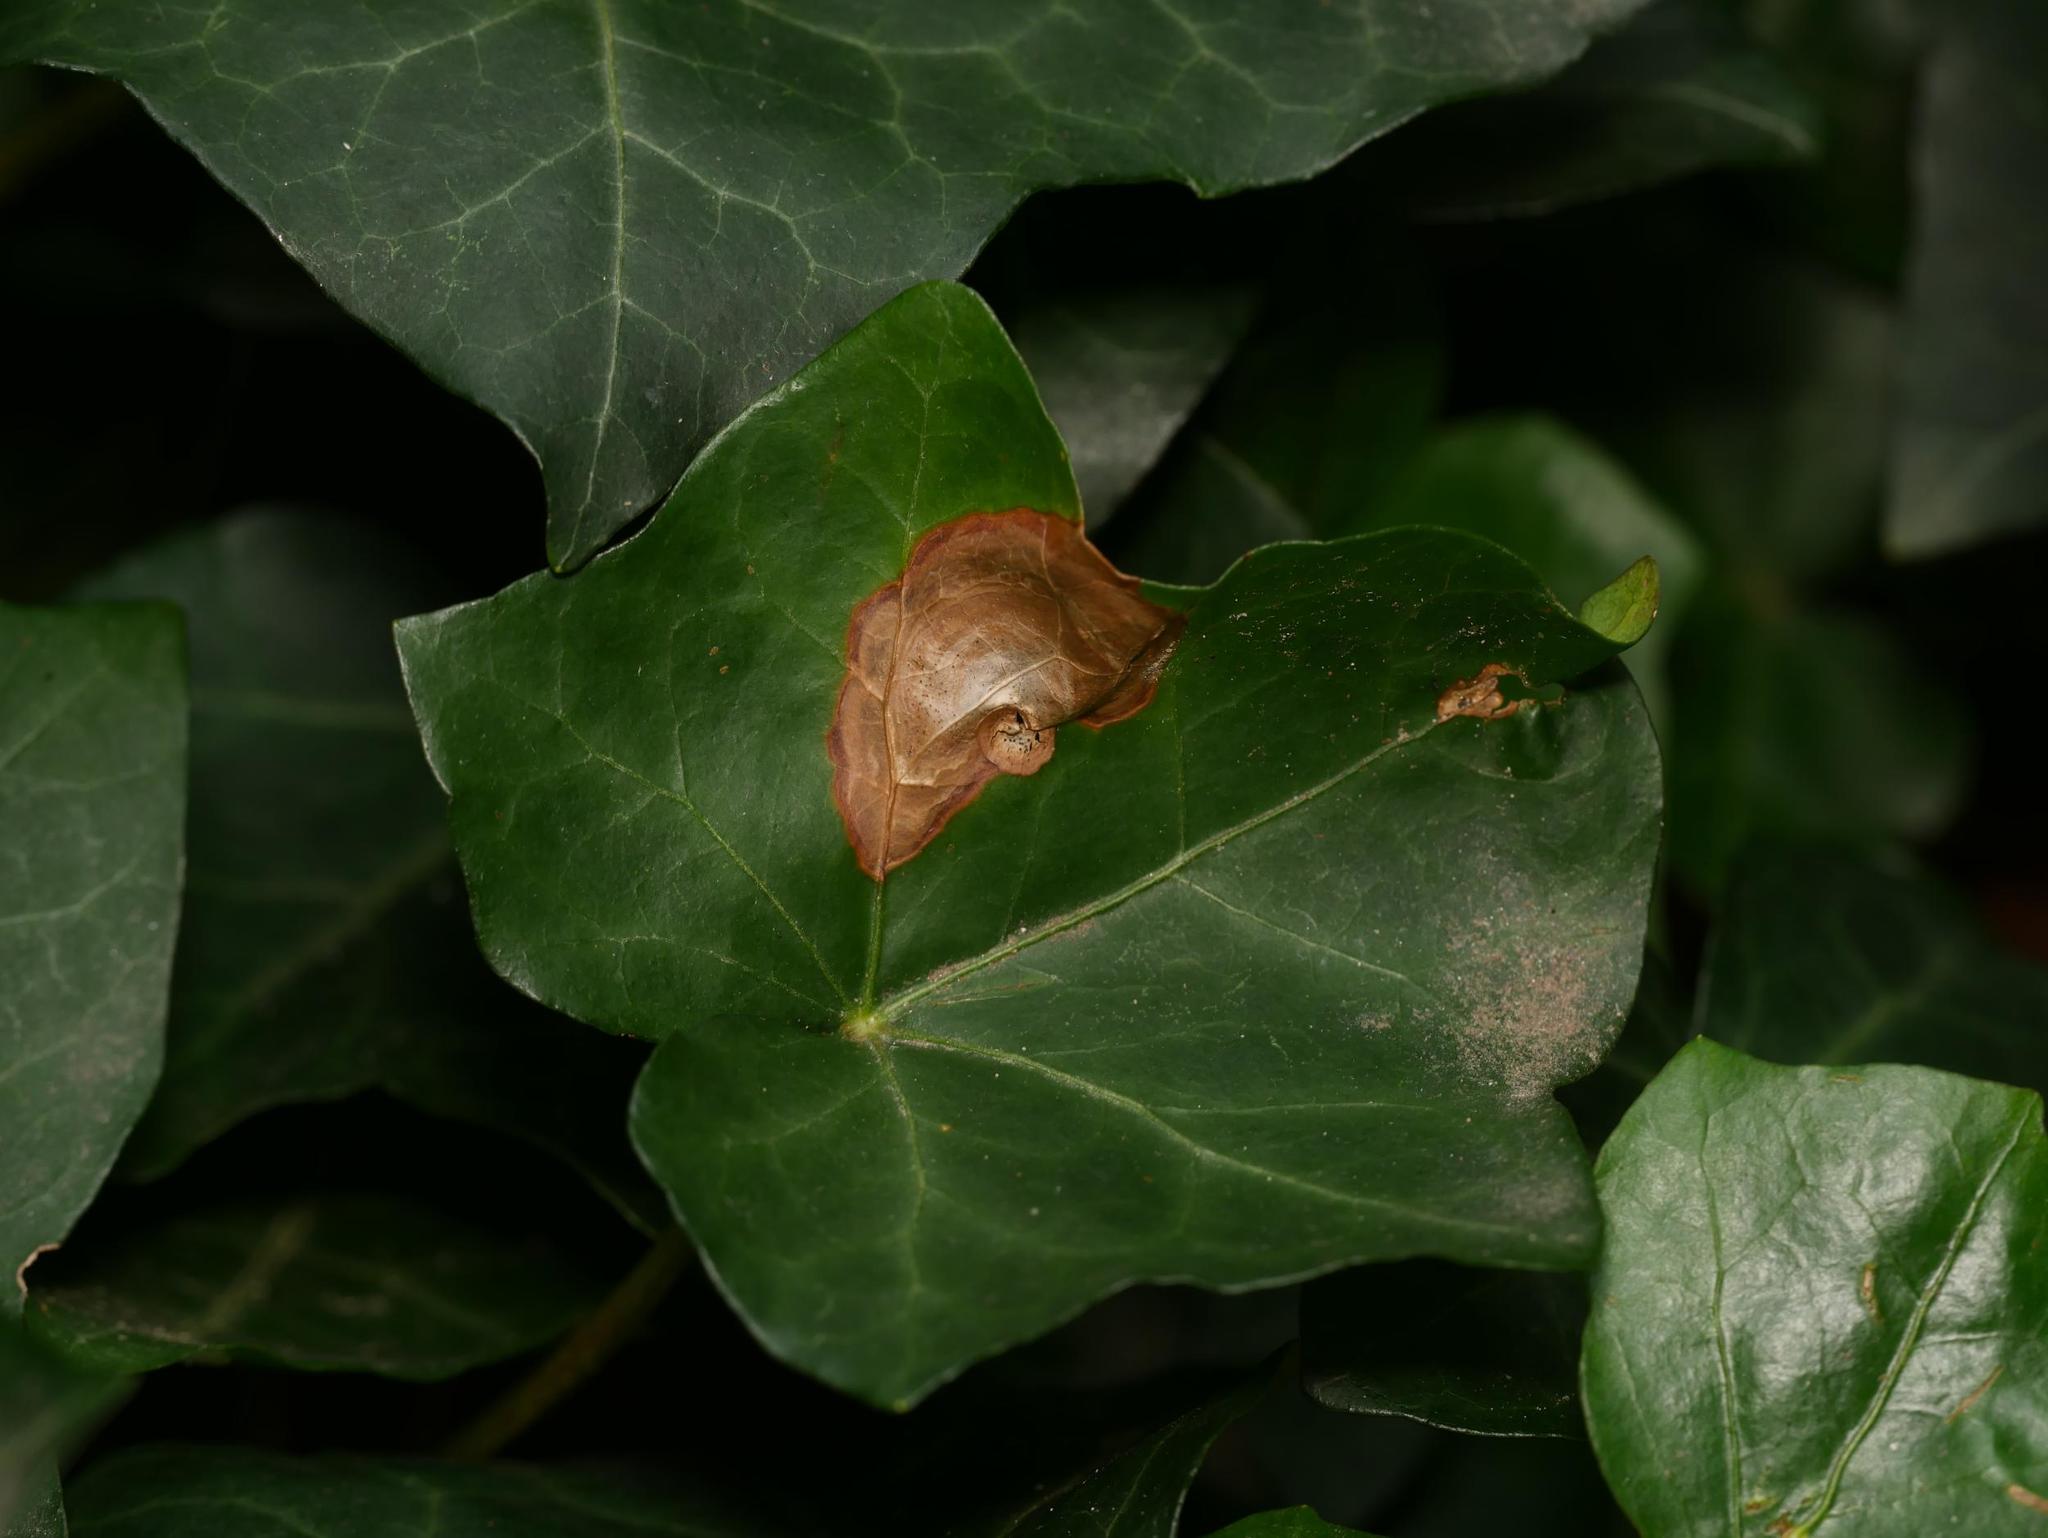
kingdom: Plantae
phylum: Tracheophyta
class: Magnoliopsida
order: Apiales
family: Araliaceae
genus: Hedera
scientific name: Hedera helix
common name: Ivy
